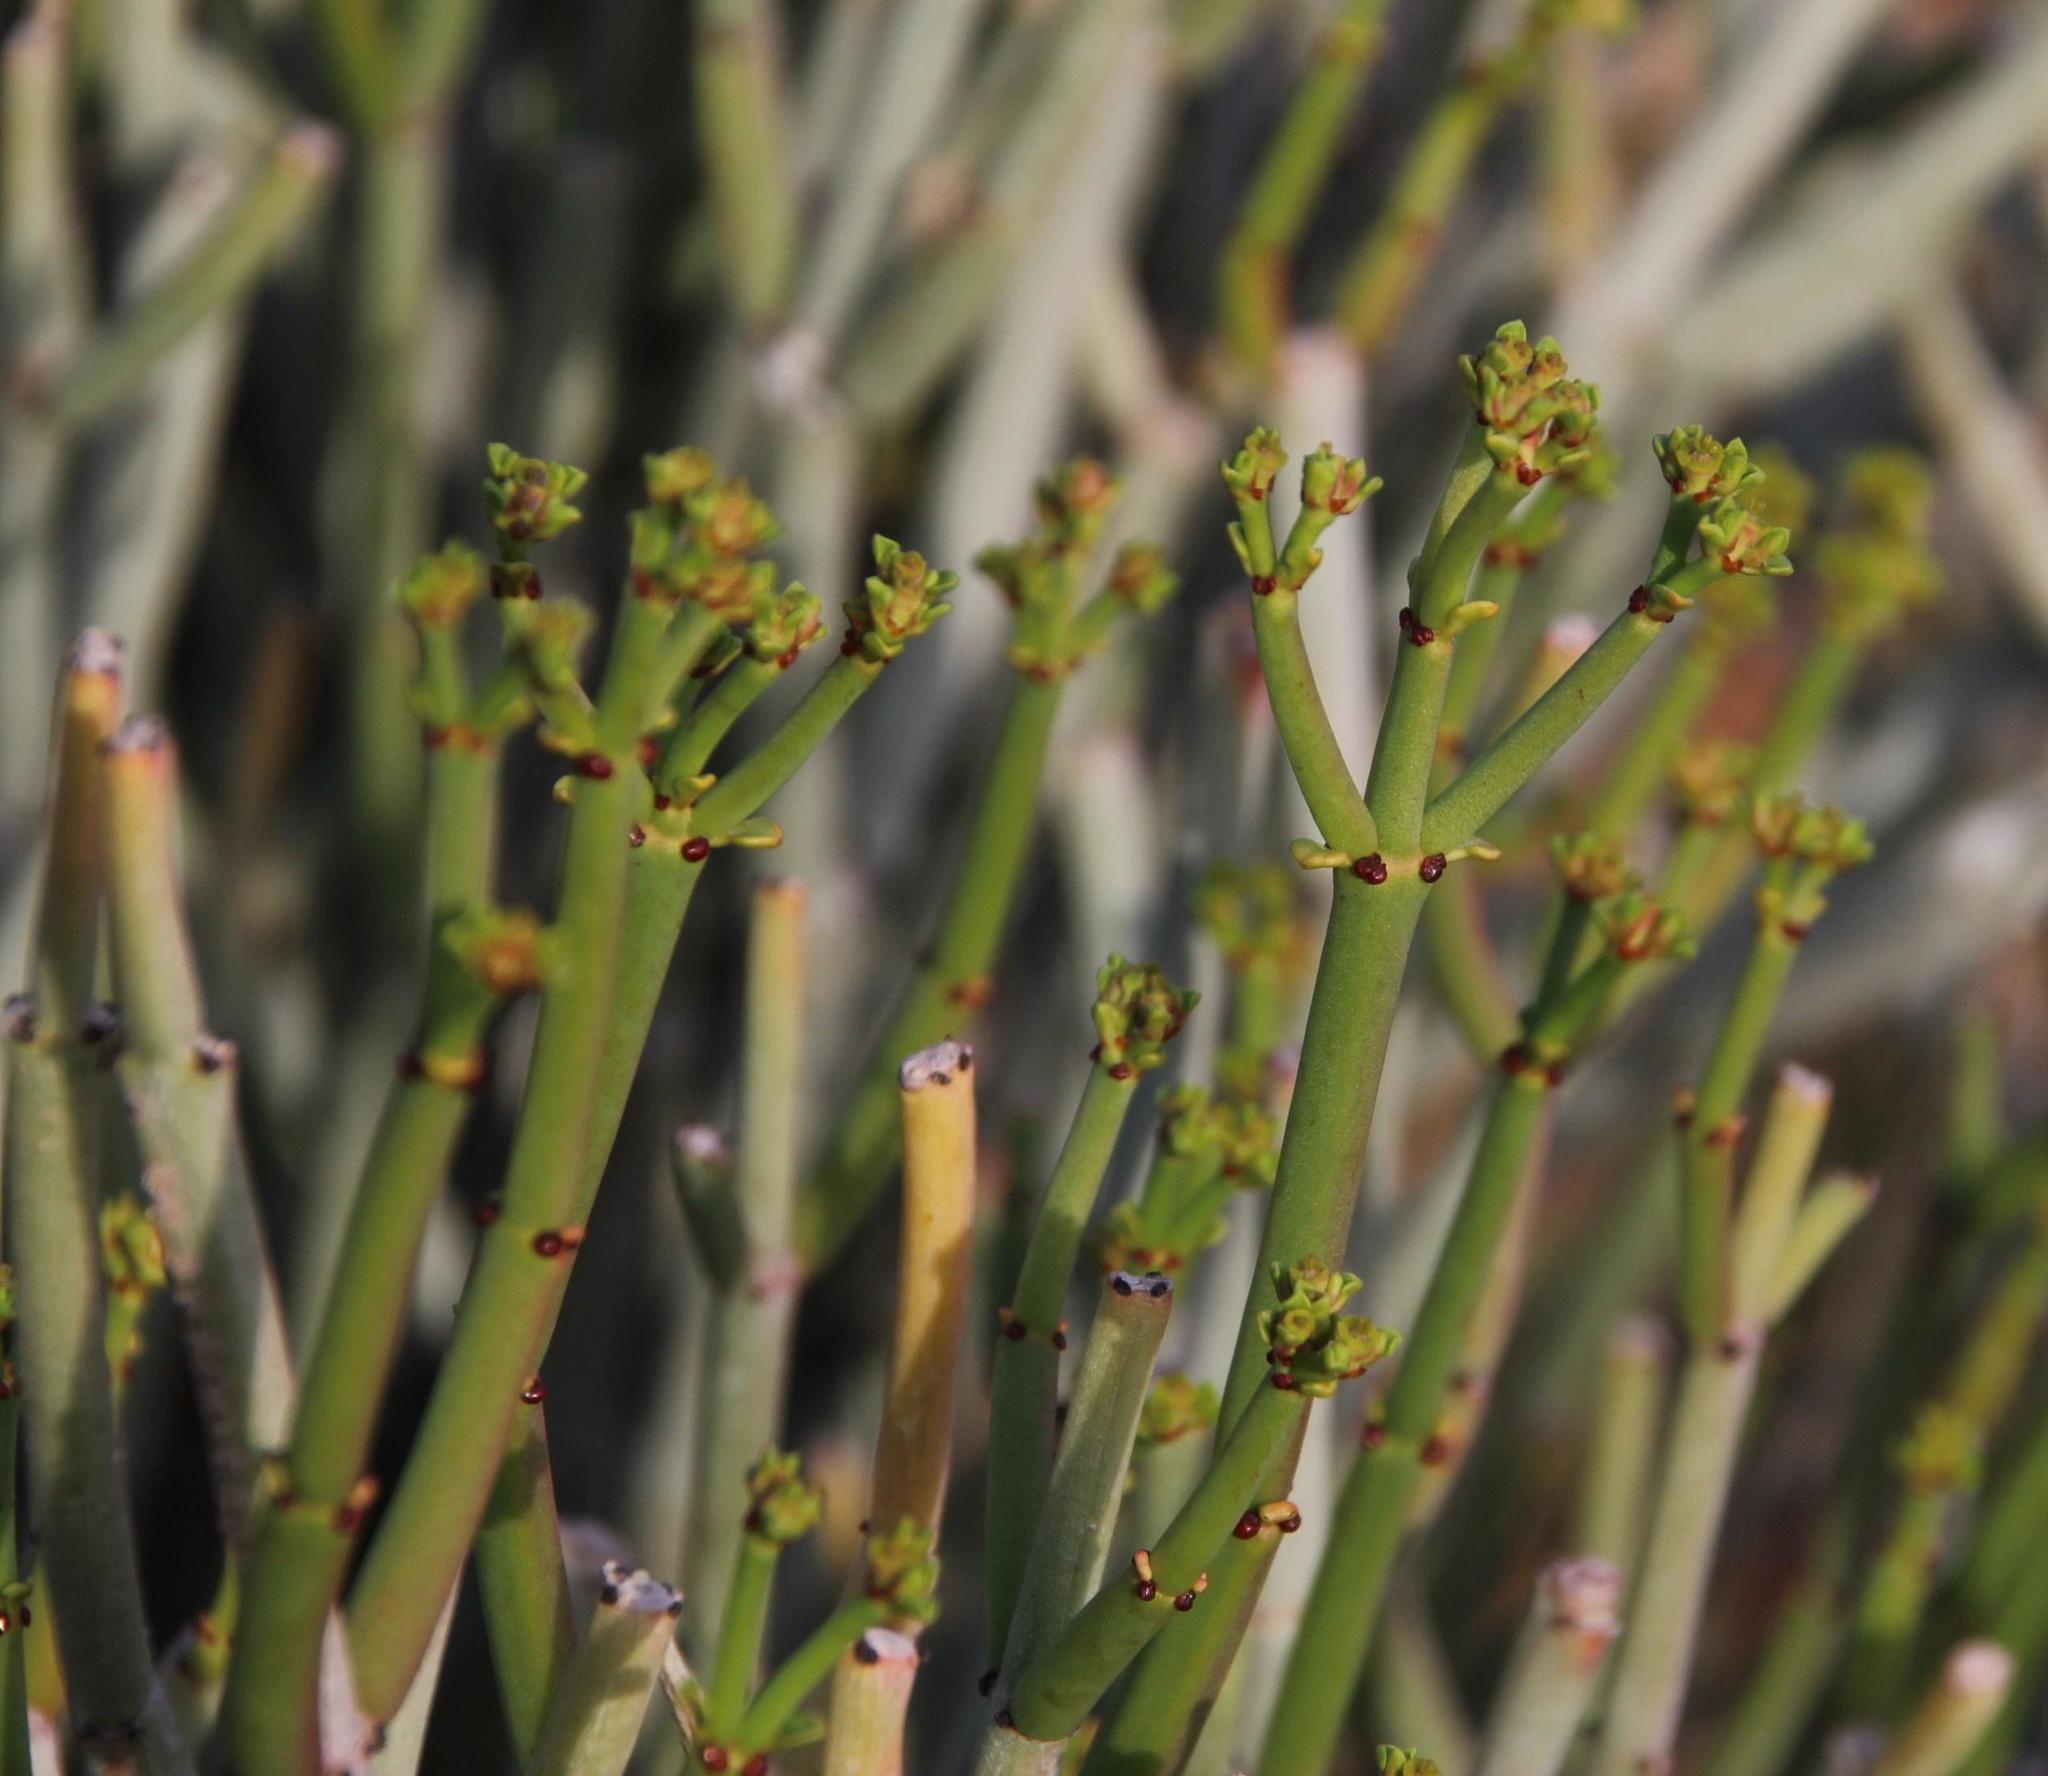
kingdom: Plantae
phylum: Tracheophyta
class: Magnoliopsida
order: Malpighiales
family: Euphorbiaceae
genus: Euphorbia
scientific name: Euphorbia burmanni
